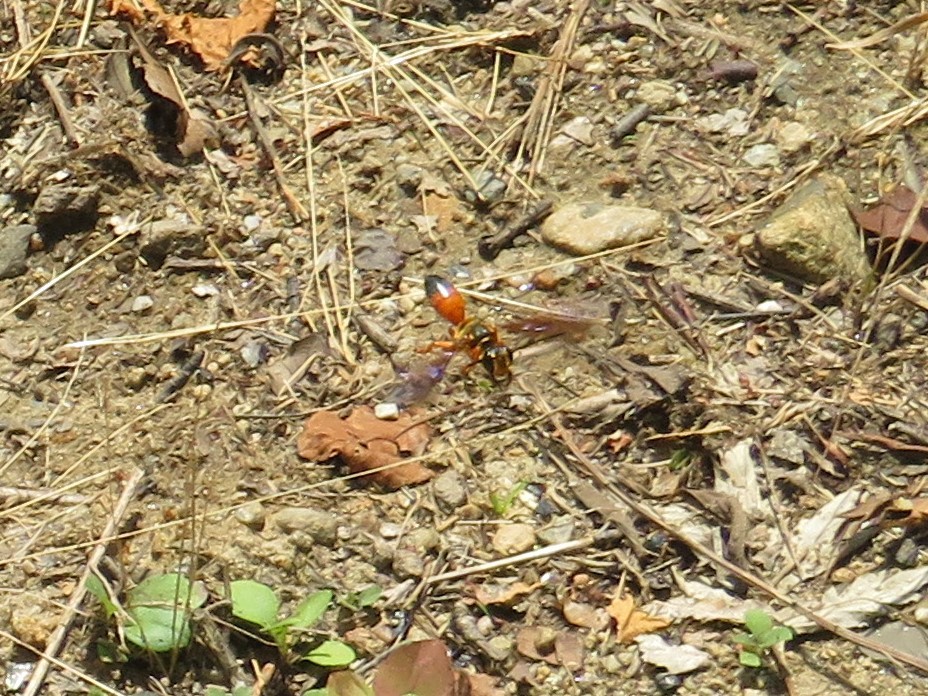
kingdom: Animalia
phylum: Arthropoda
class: Insecta
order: Hymenoptera
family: Sphecidae
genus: Sphex
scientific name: Sphex ichneumoneus
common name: Great golden digger wasp
